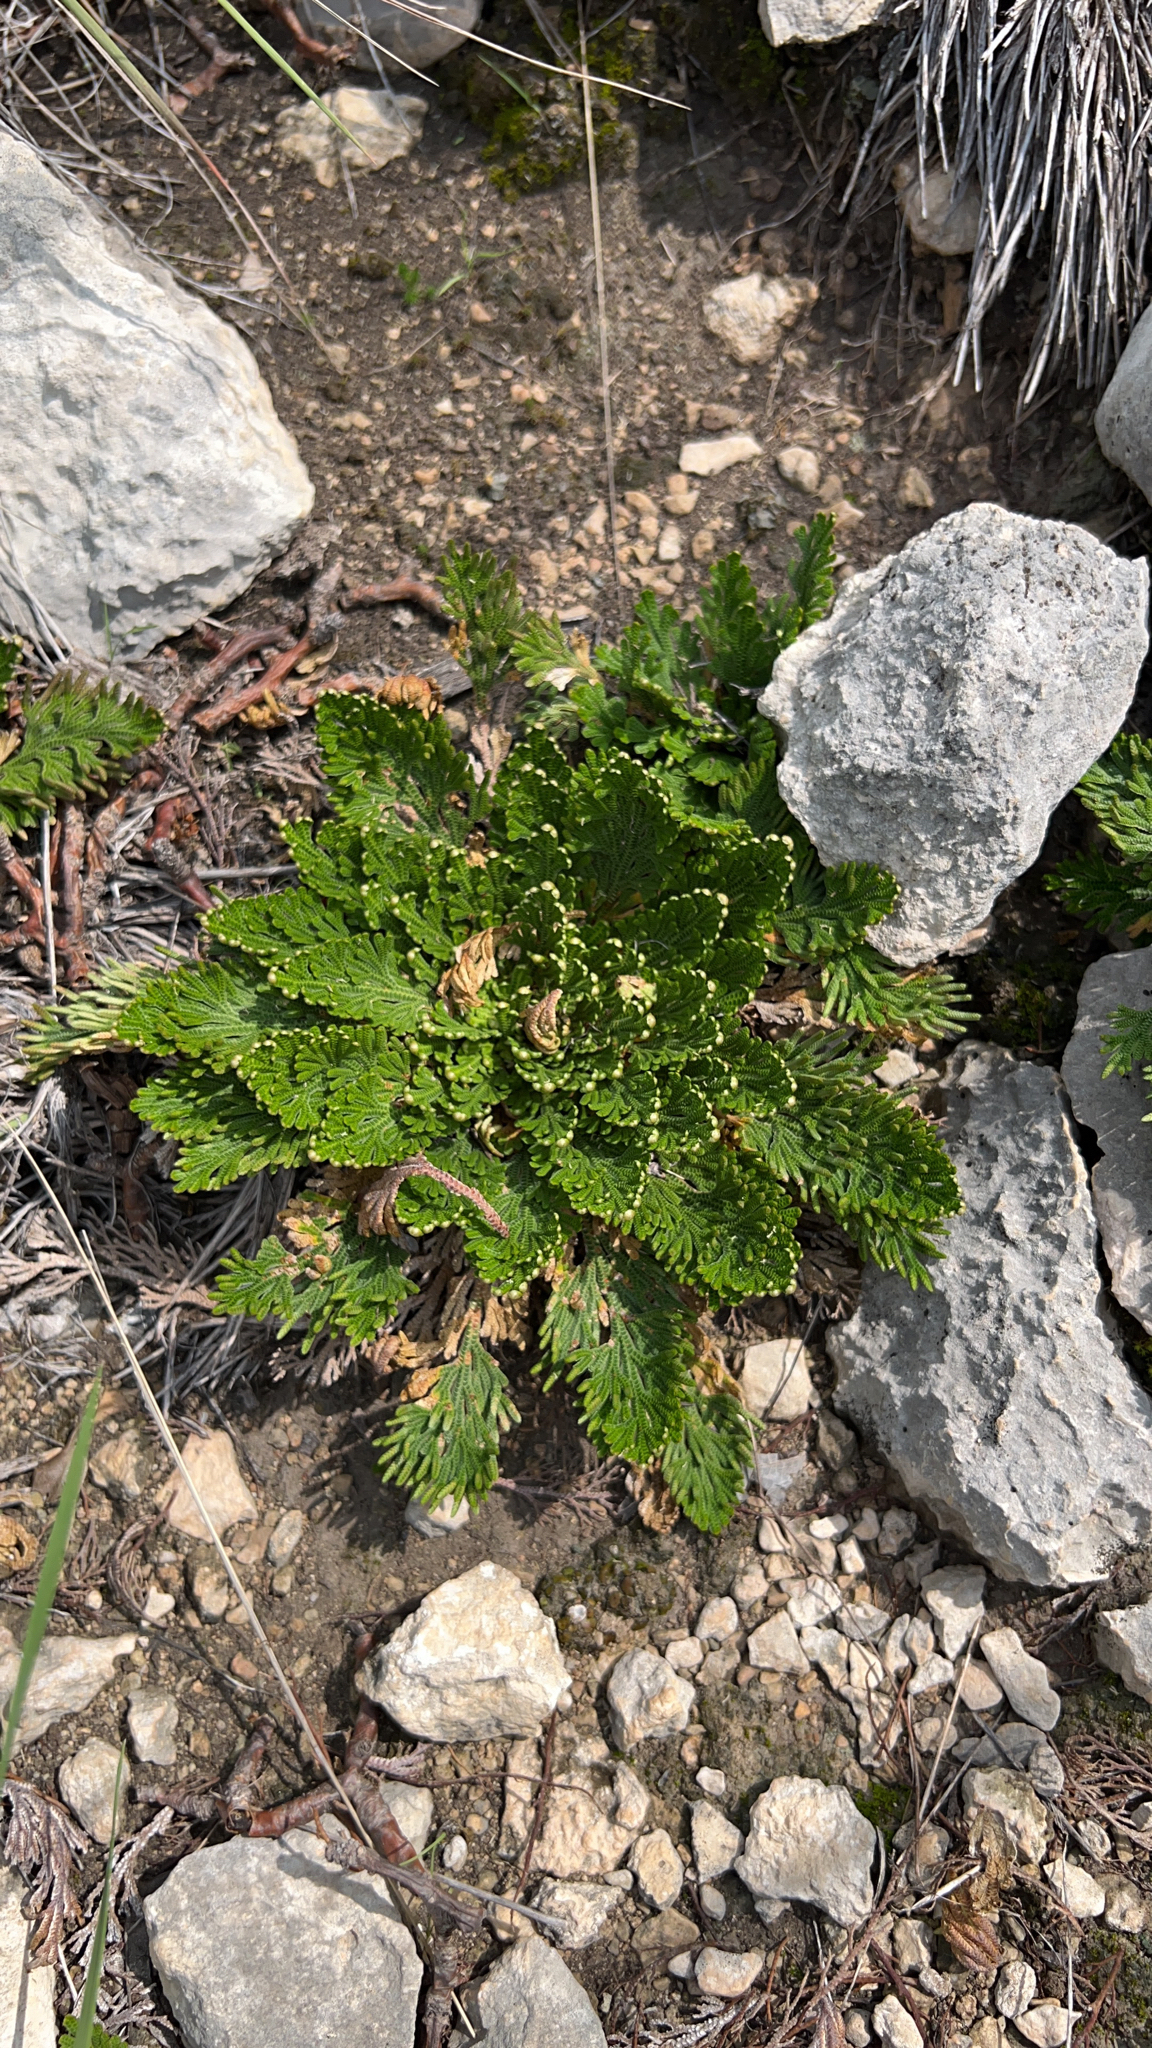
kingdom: Plantae
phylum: Tracheophyta
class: Lycopodiopsida
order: Selaginellales
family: Selaginellaceae
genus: Selaginella
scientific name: Selaginella lepidophylla
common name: Rose-of-jericho
